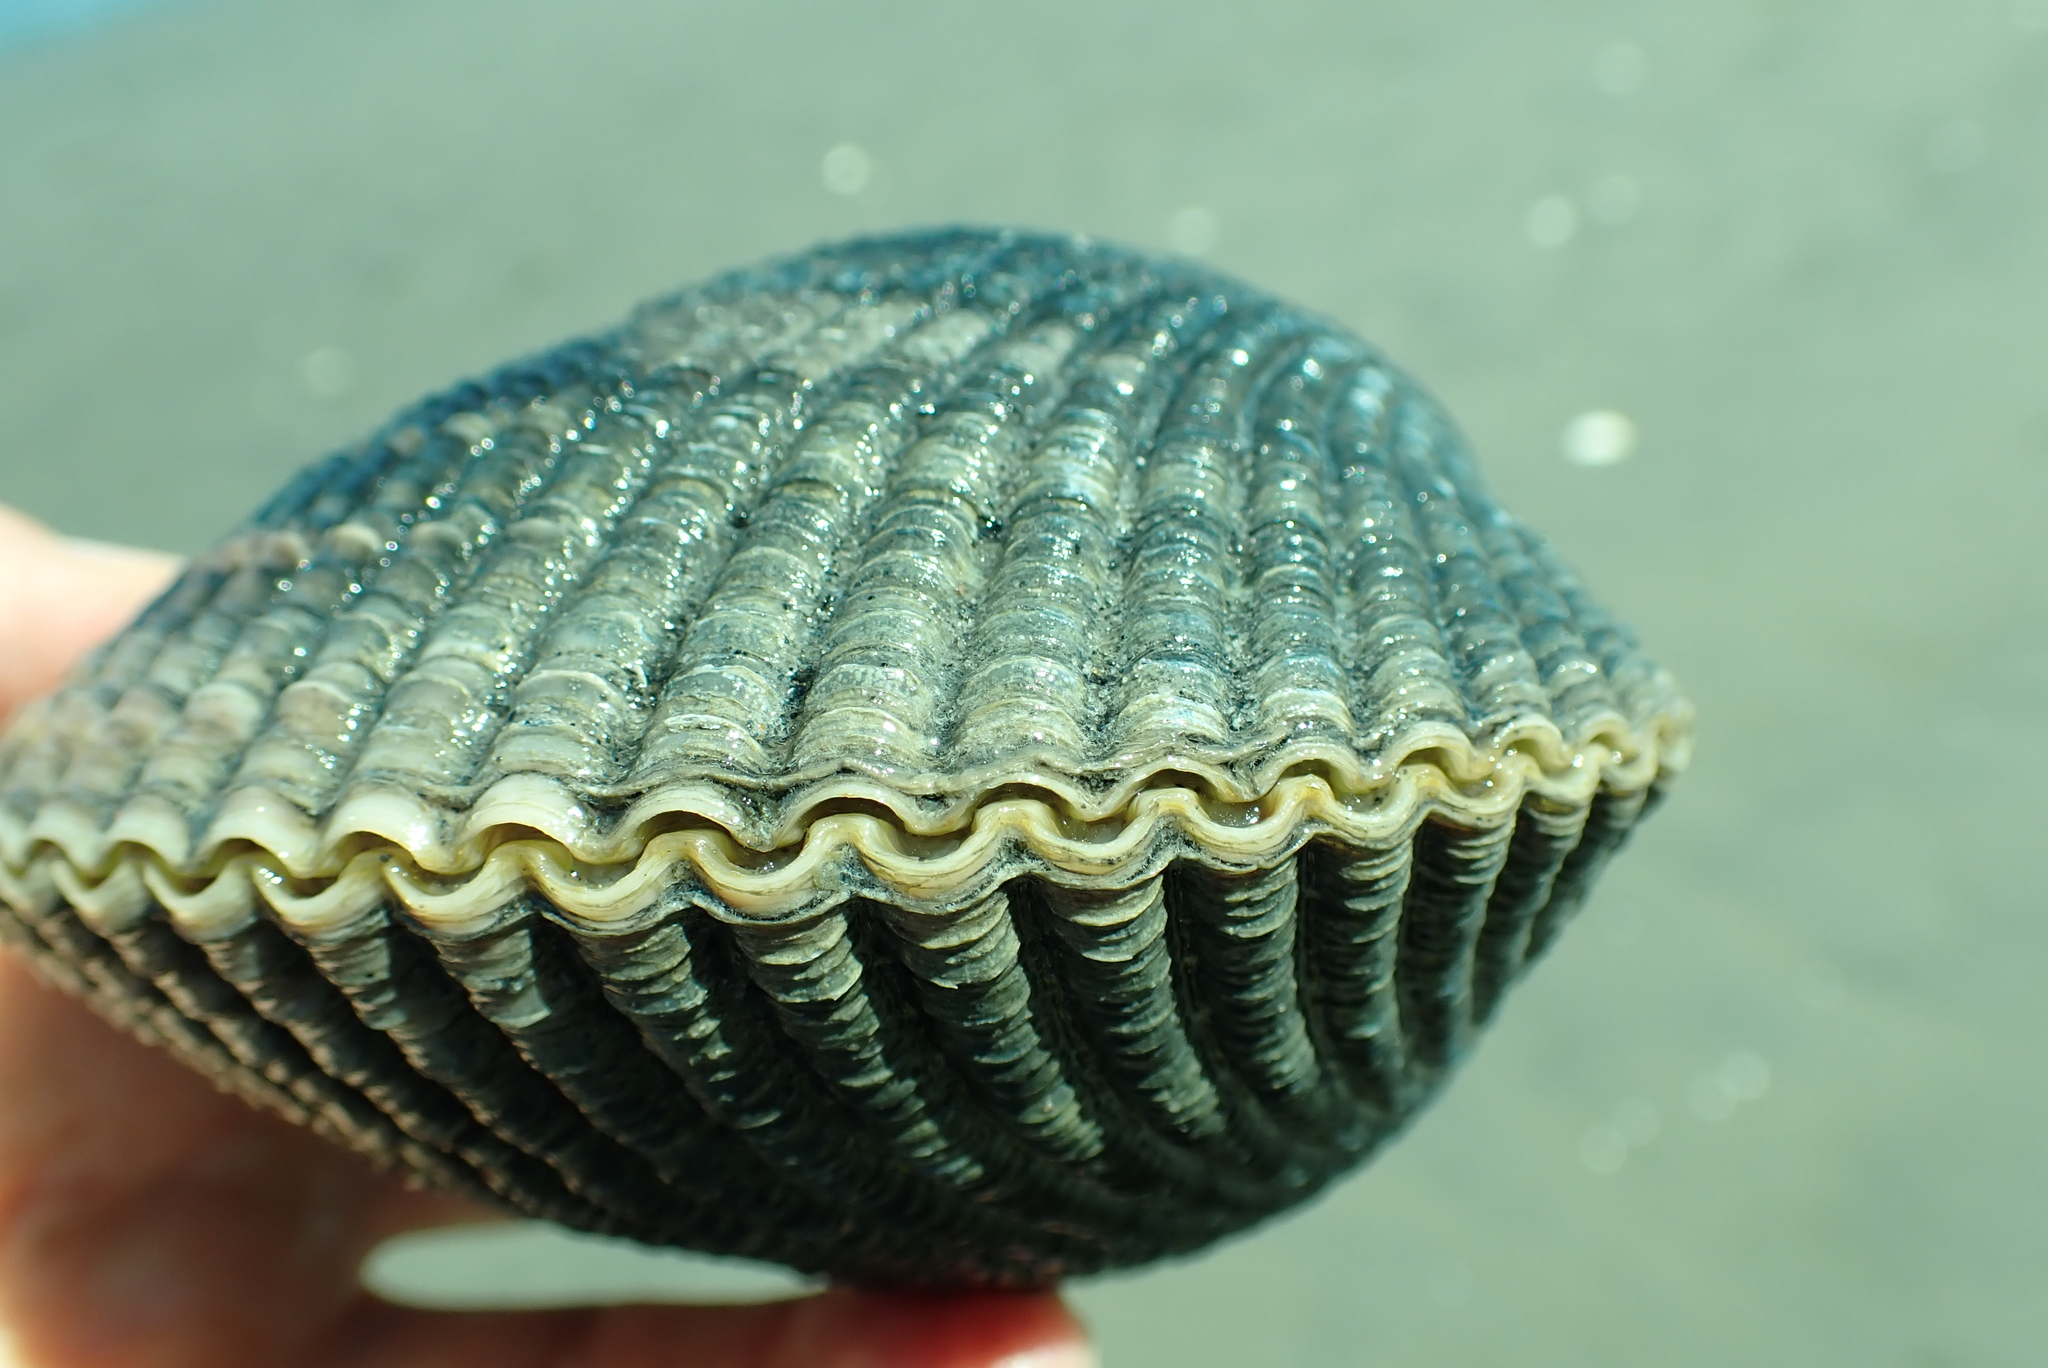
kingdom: Animalia
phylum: Mollusca
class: Bivalvia
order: Cardiida
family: Cardiidae
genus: Clinocardium
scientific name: Clinocardium nuttallii
